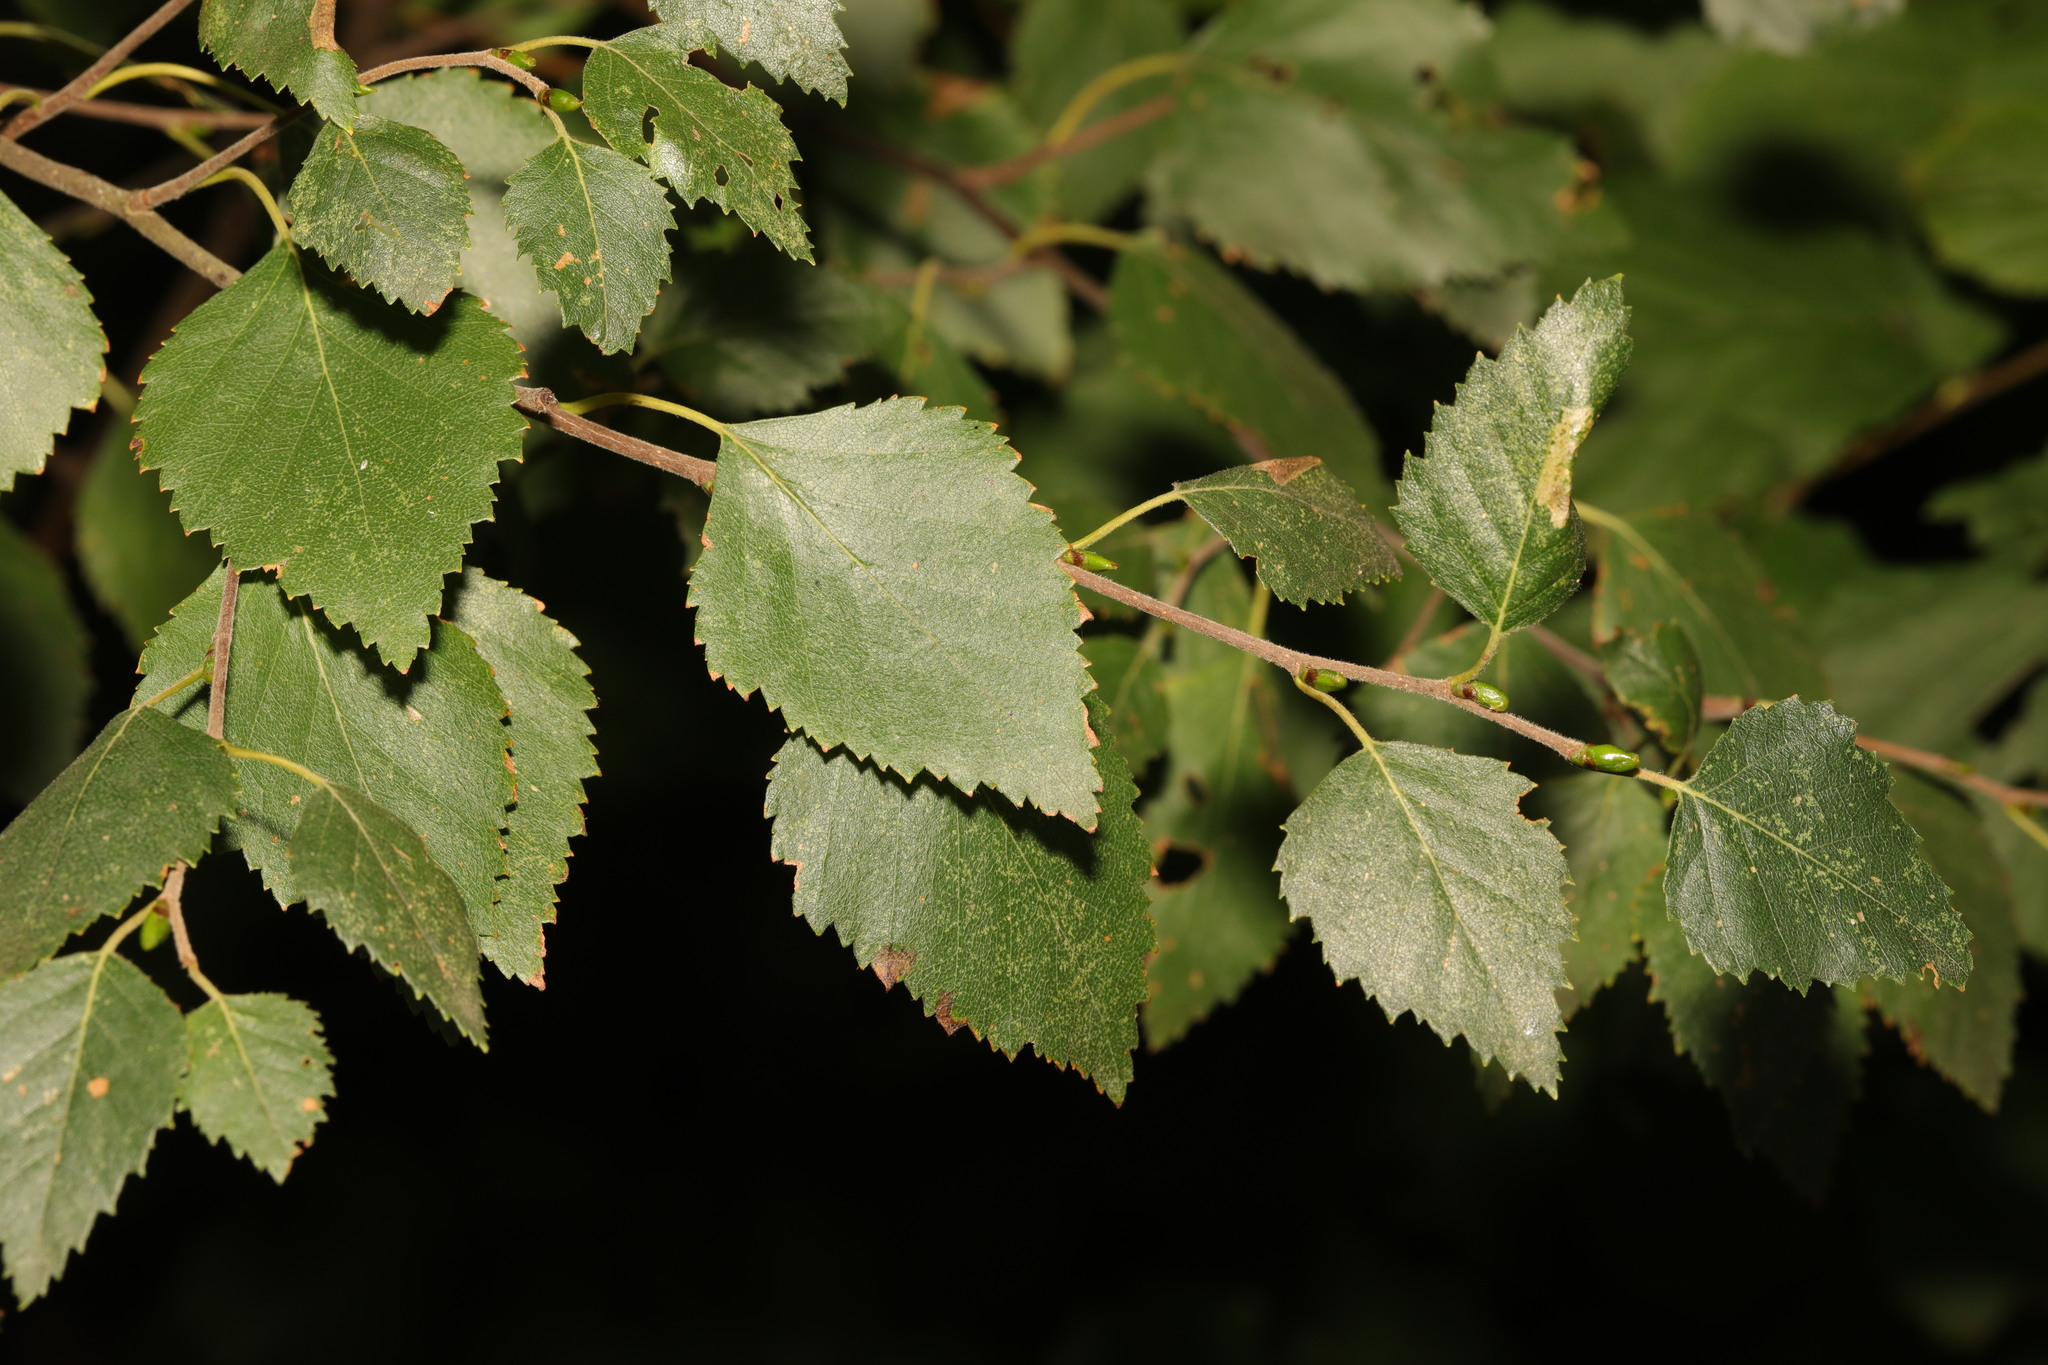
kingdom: Plantae
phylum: Tracheophyta
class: Magnoliopsida
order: Fagales
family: Betulaceae
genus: Betula
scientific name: Betula pubescens
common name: Downy birch
